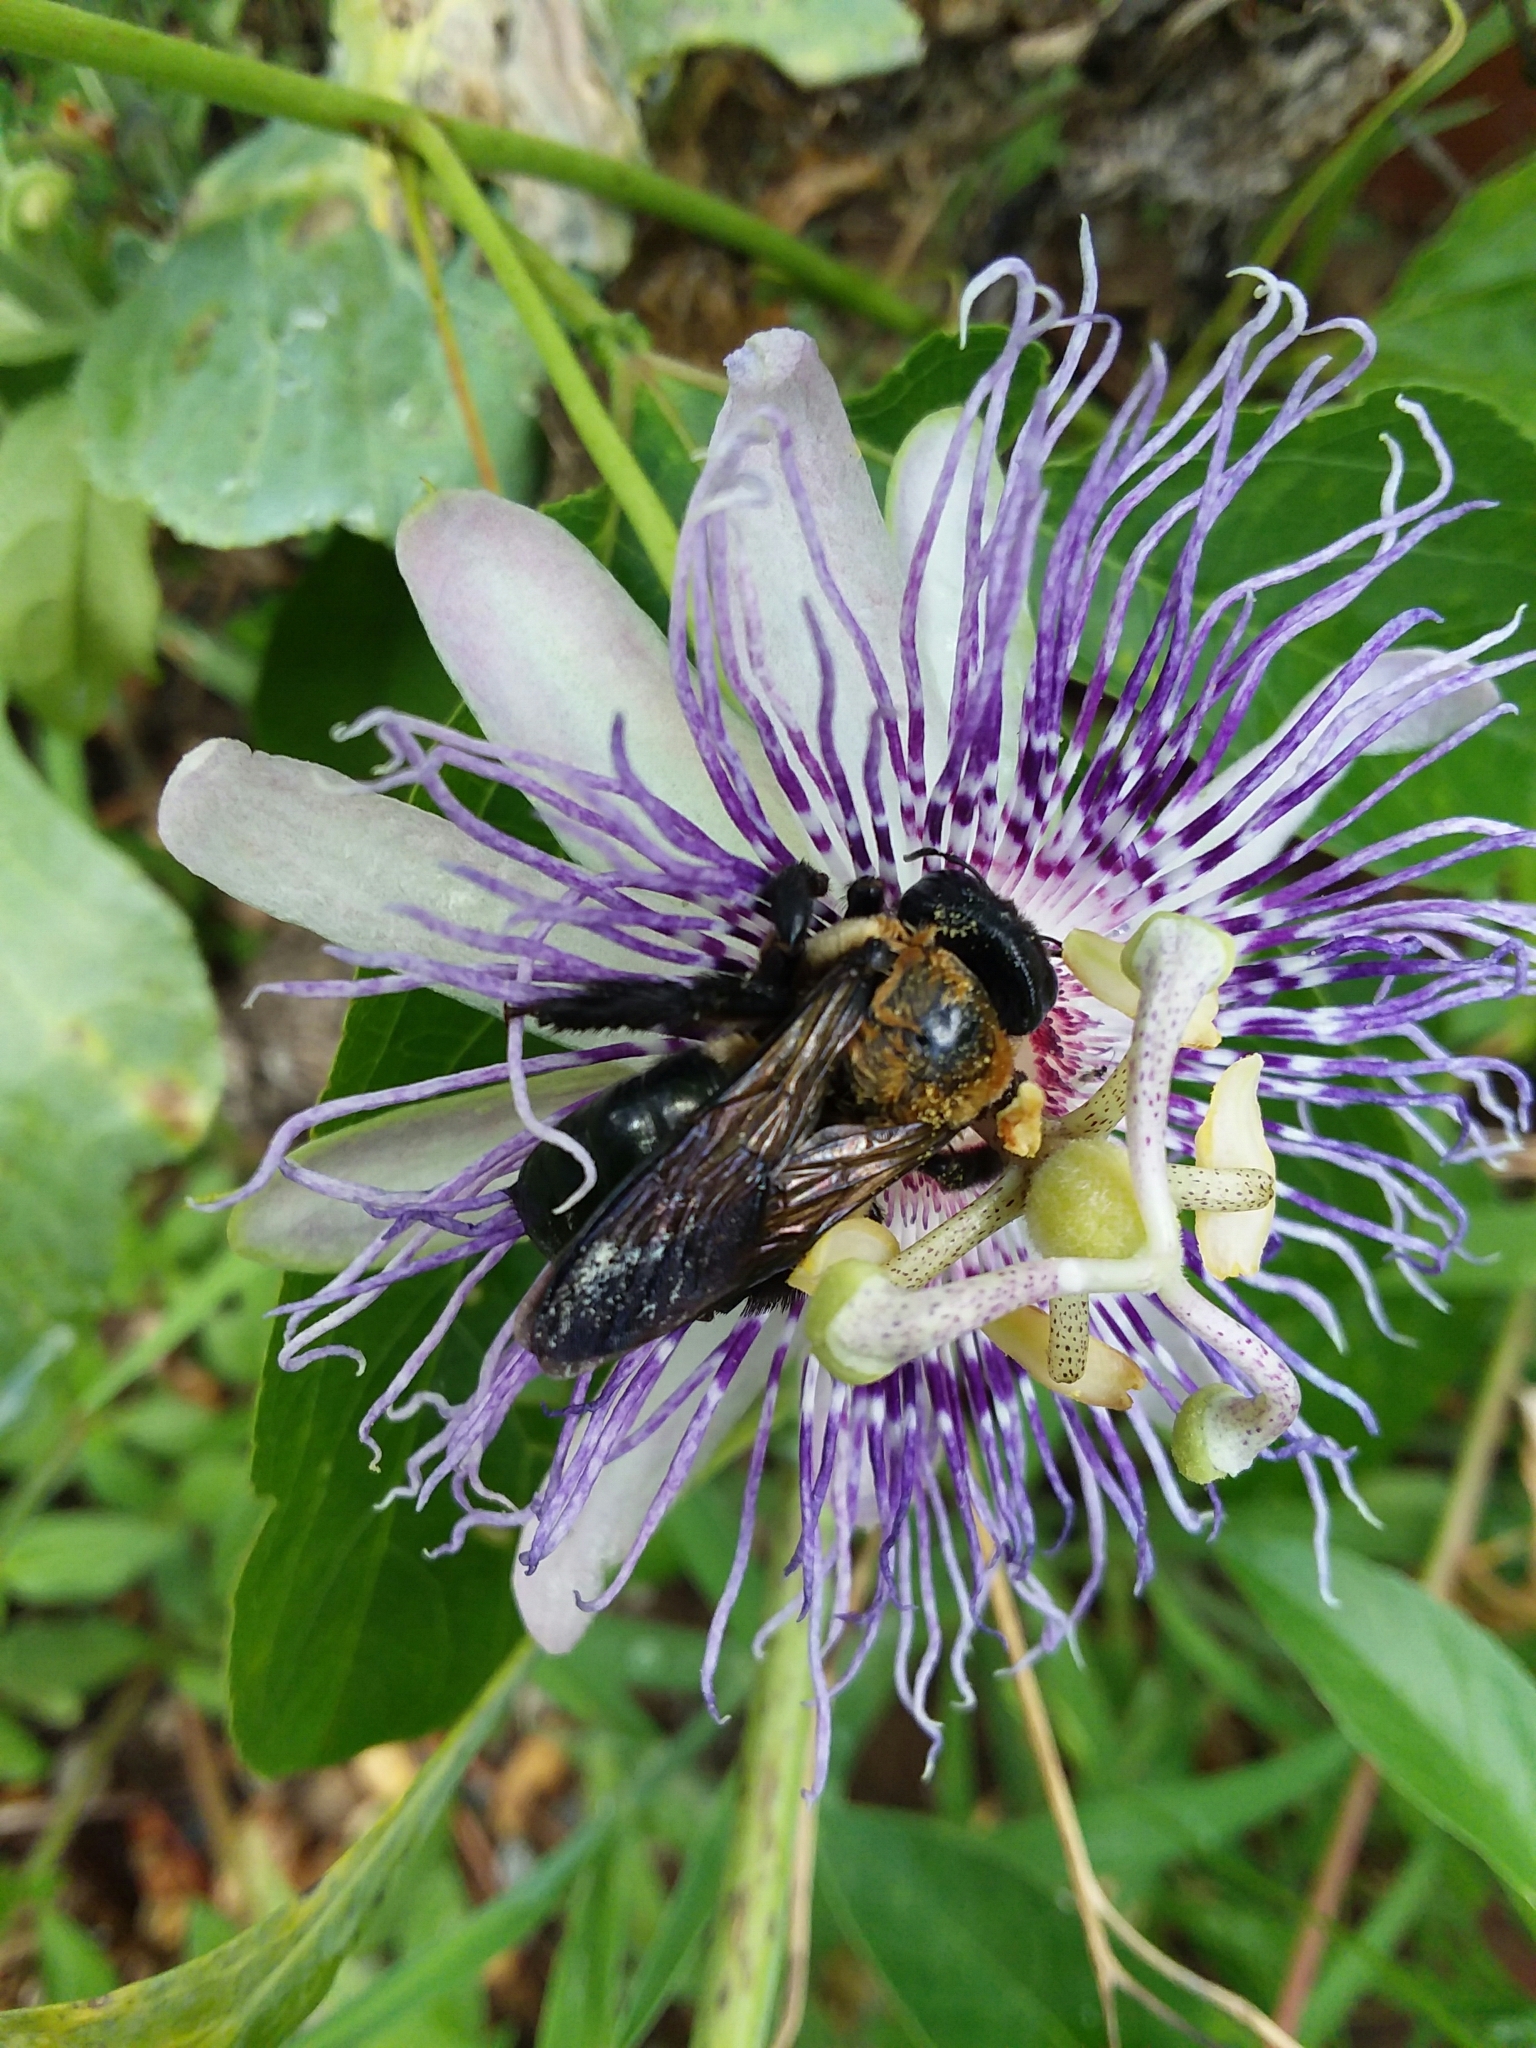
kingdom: Animalia
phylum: Arthropoda
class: Insecta
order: Hymenoptera
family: Apidae
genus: Xylocopa
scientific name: Xylocopa virginica
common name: Carpenter bee
